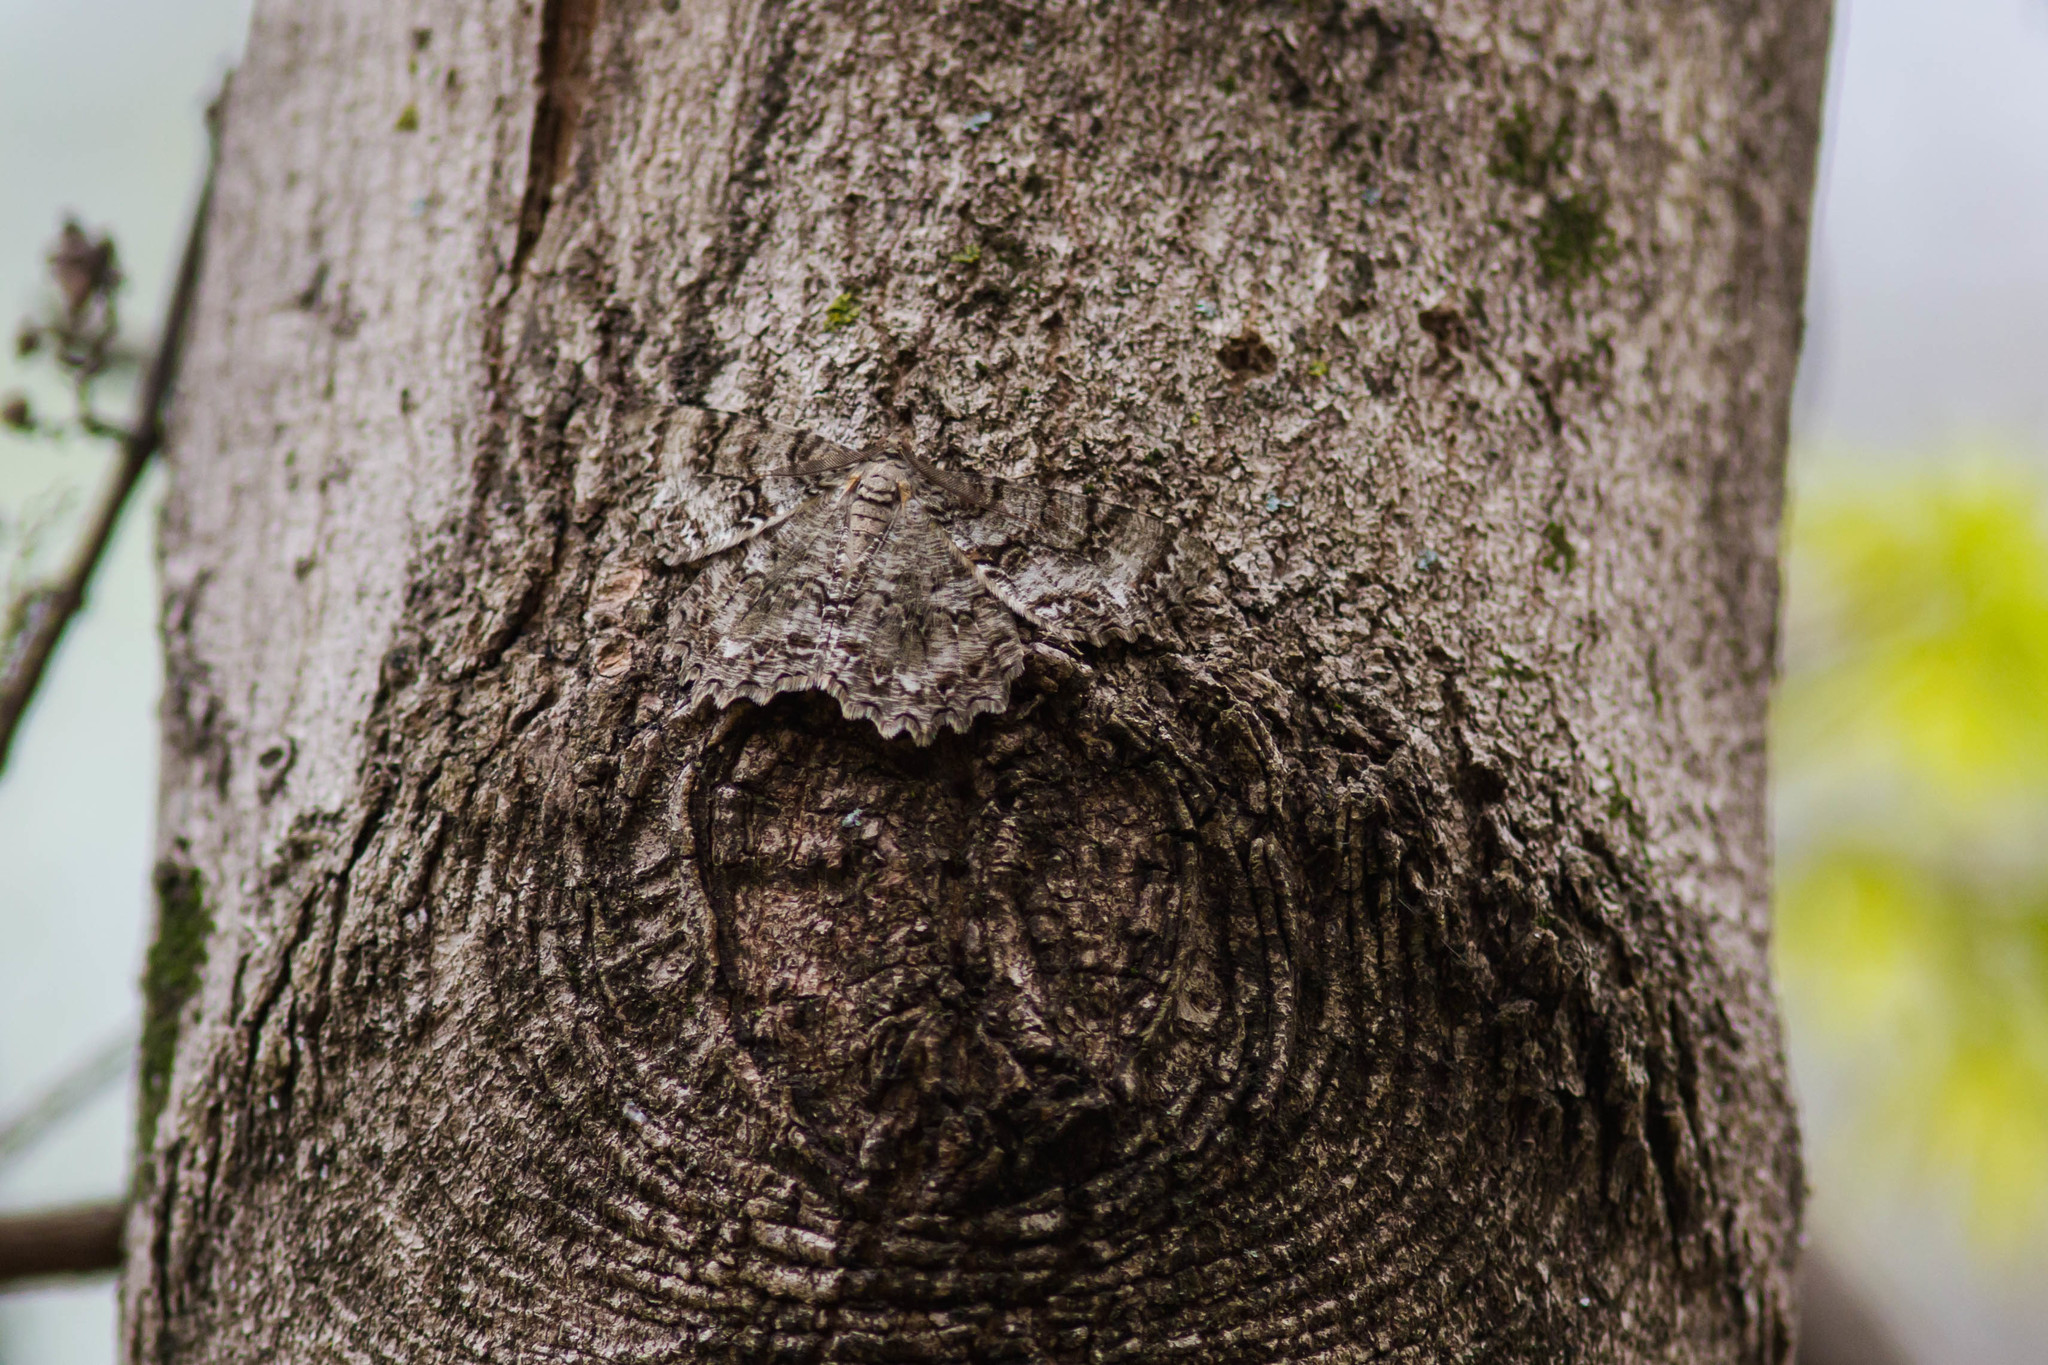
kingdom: Animalia
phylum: Arthropoda
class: Insecta
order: Lepidoptera
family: Geometridae
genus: Epimecis
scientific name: Epimecis hortaria
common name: Tulip-tree beauty
